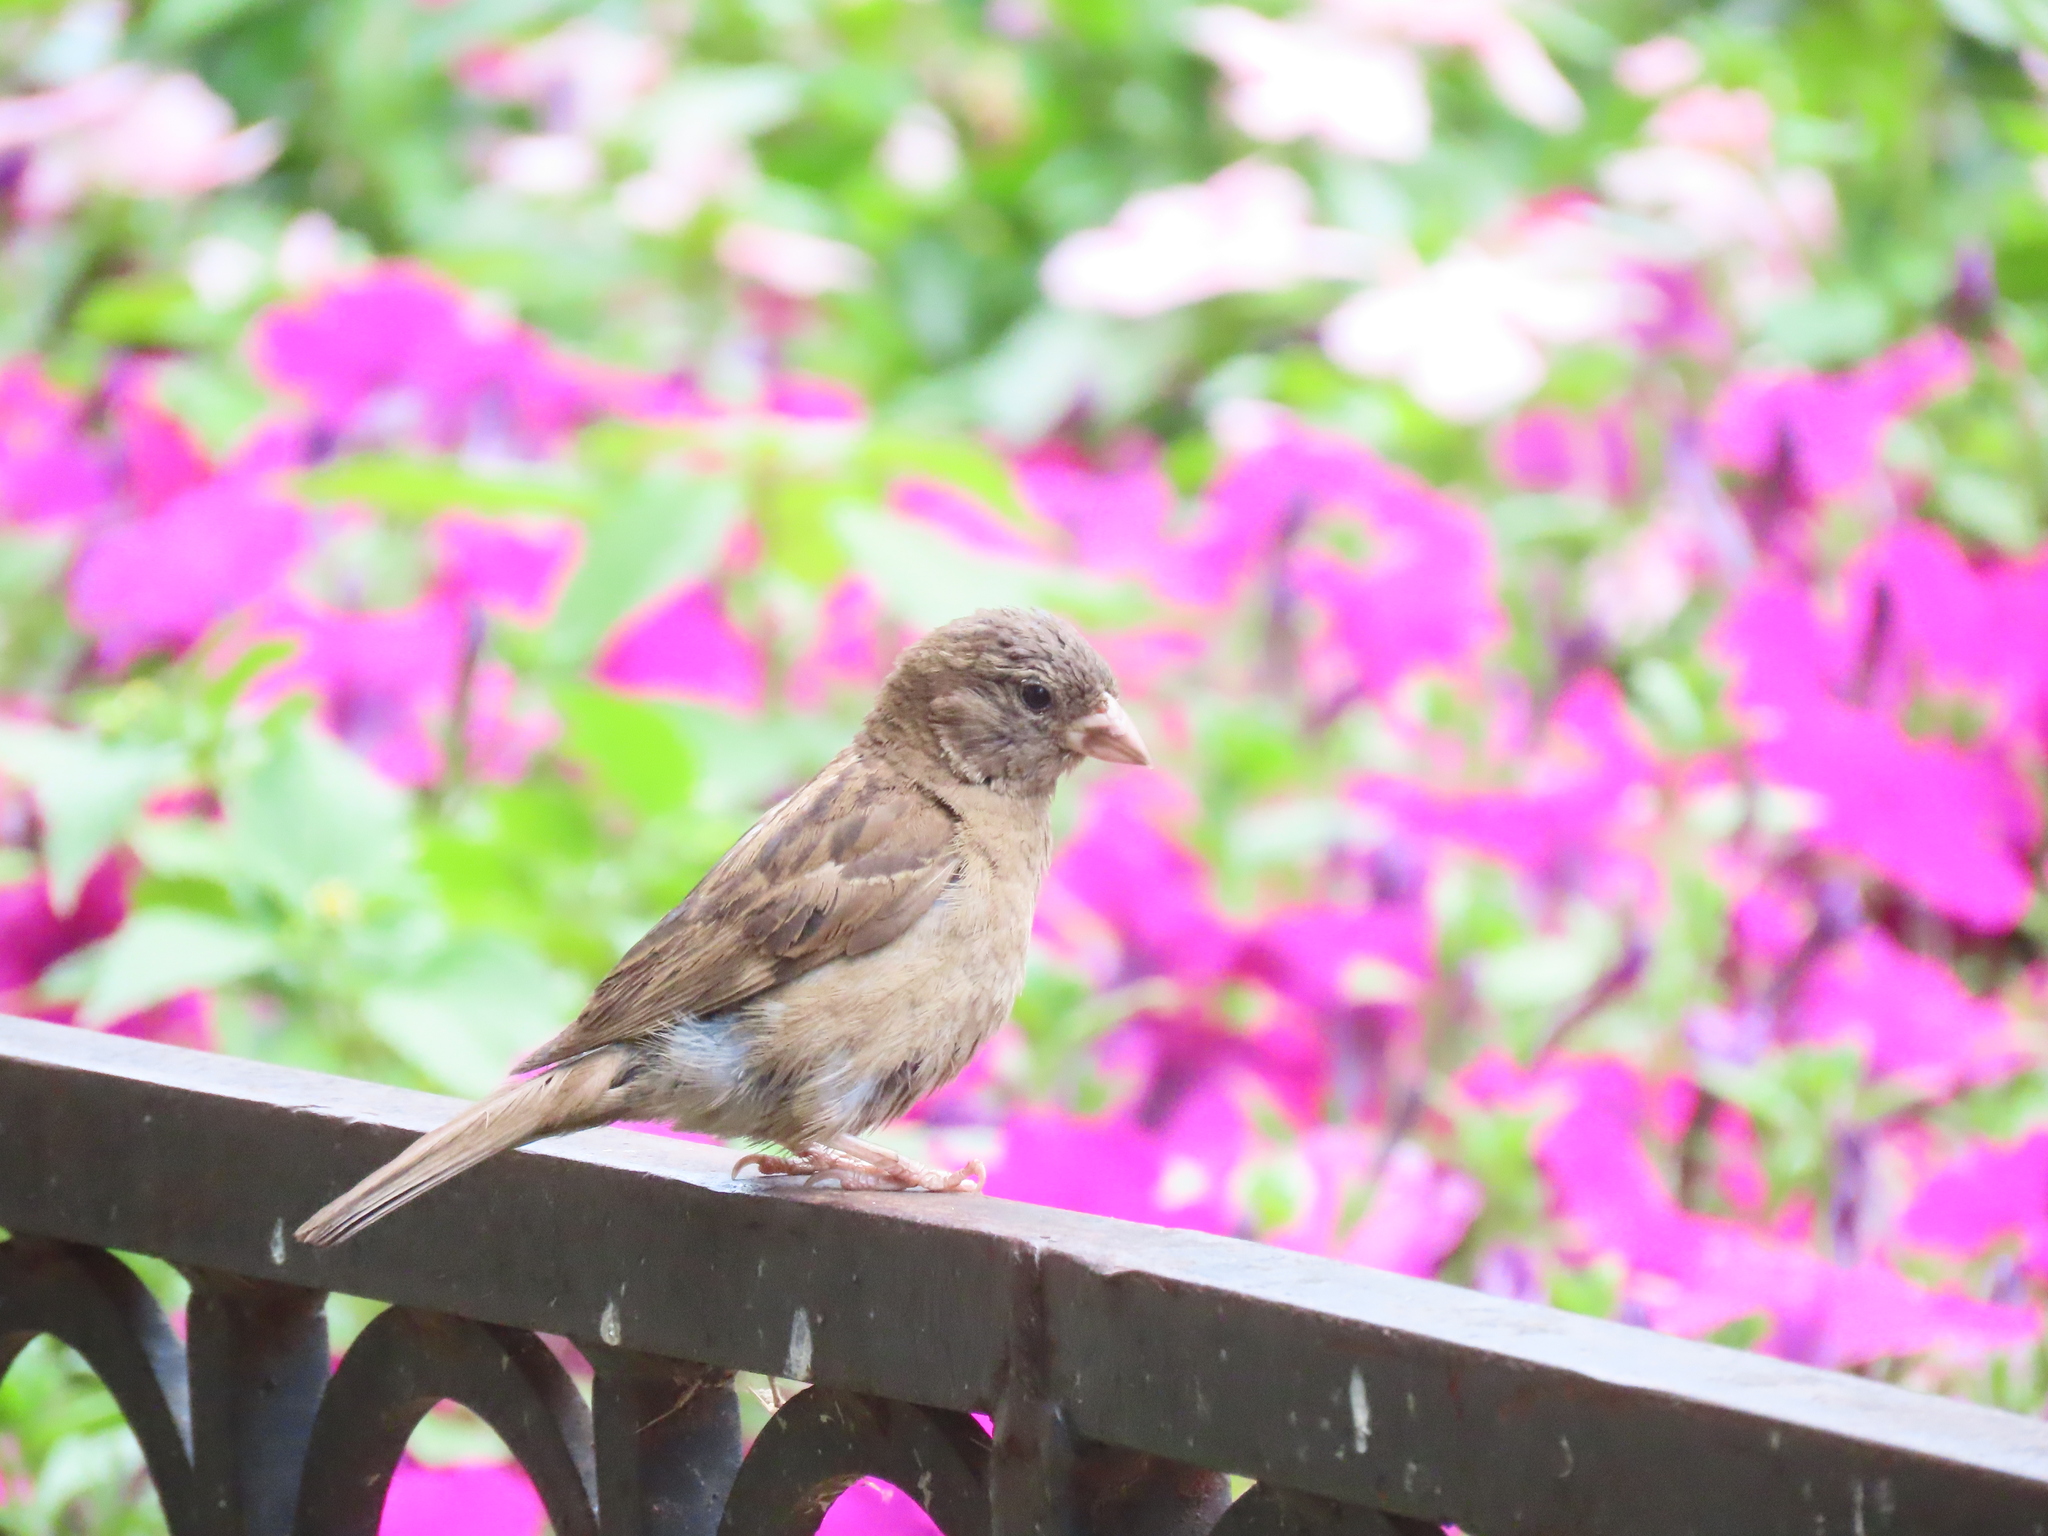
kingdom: Animalia
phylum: Chordata
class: Aves
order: Passeriformes
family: Passeridae
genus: Passer
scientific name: Passer domesticus
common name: House sparrow
